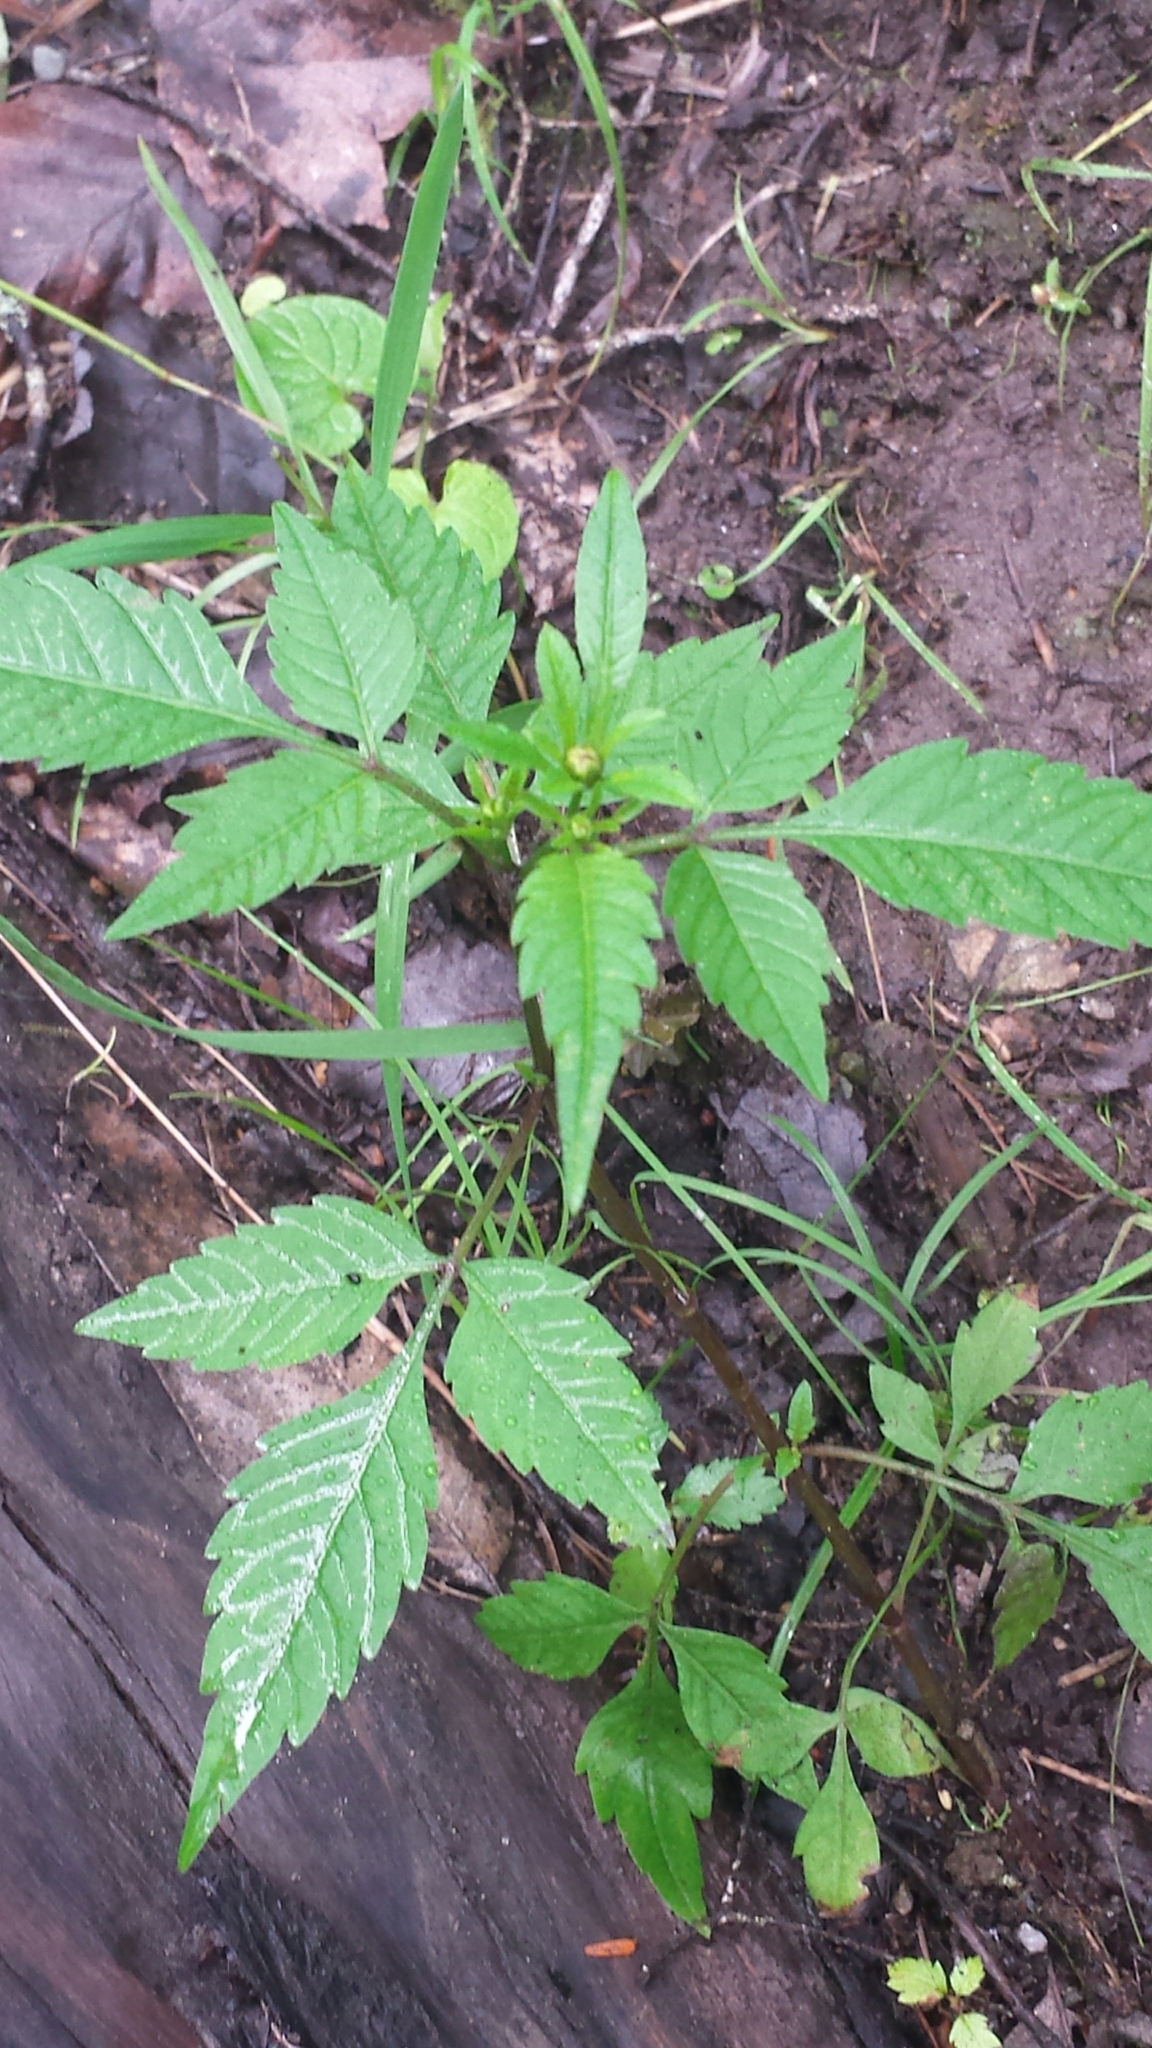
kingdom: Plantae
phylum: Tracheophyta
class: Magnoliopsida
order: Asterales
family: Asteraceae
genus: Bidens
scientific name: Bidens frondosa
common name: Beggarticks
